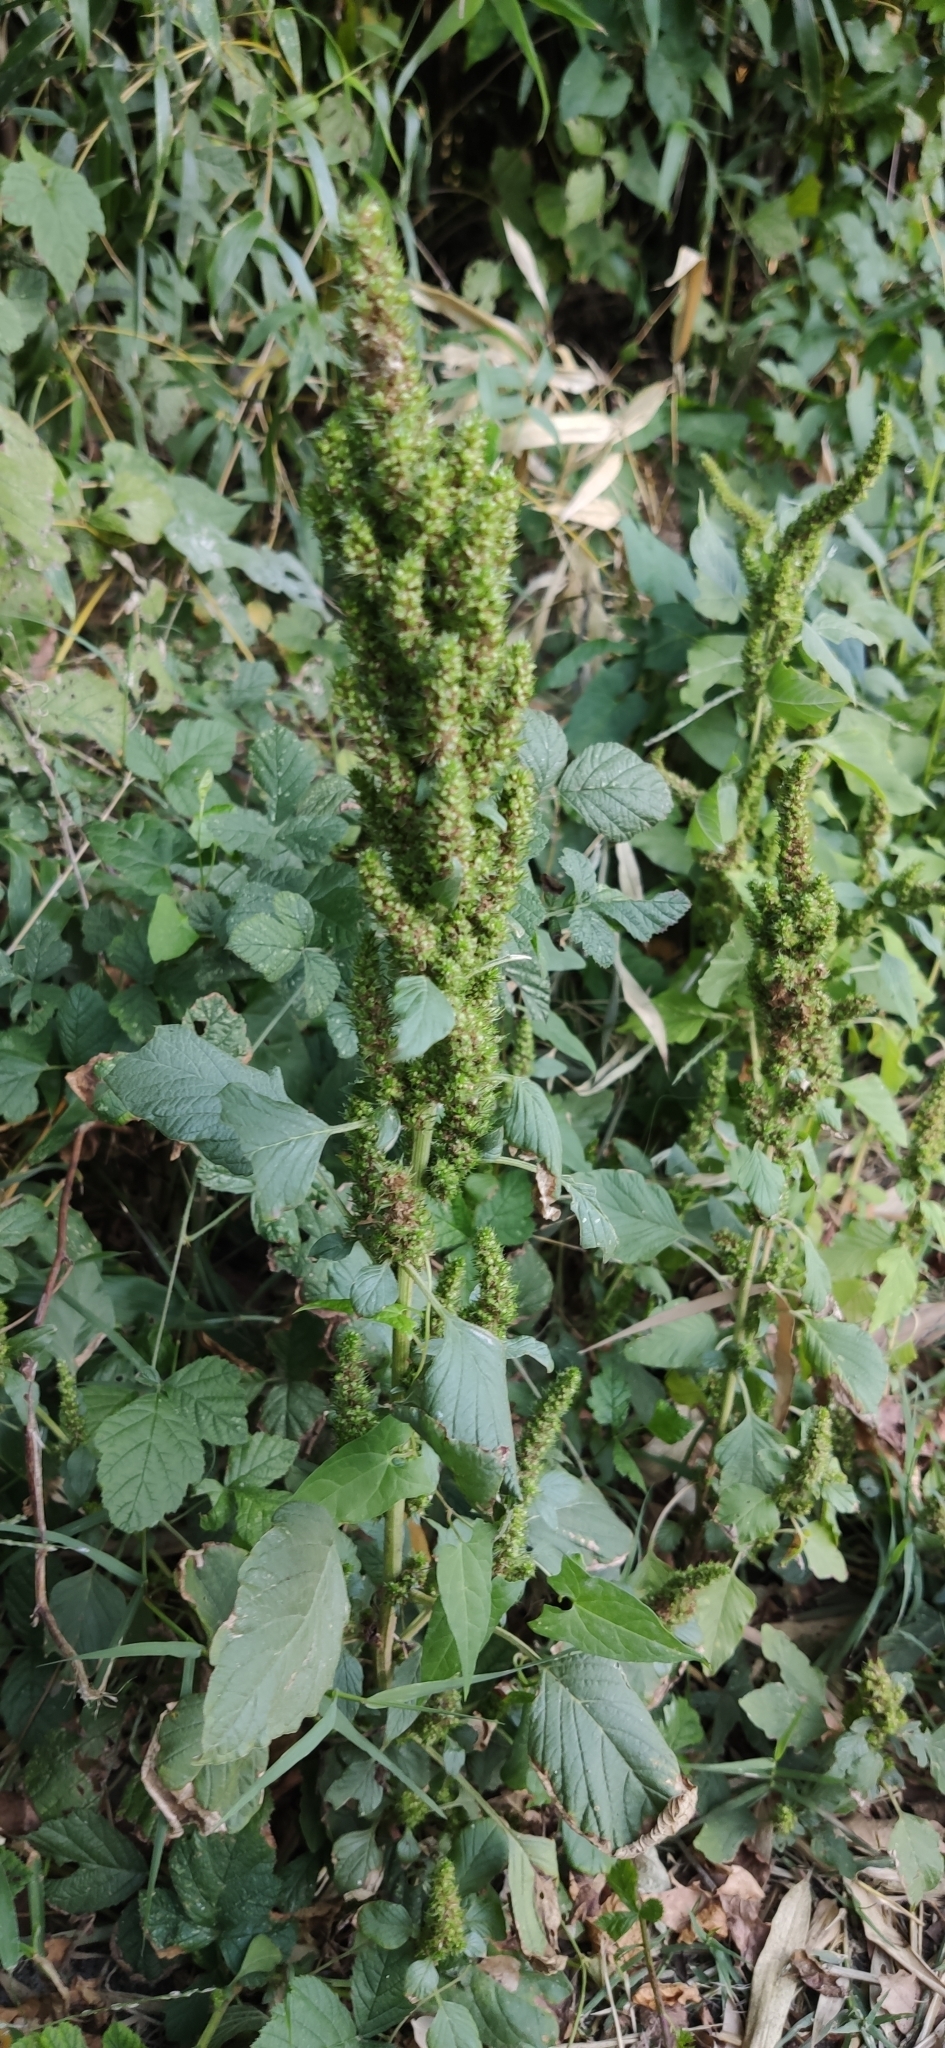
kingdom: Plantae
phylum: Tracheophyta
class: Magnoliopsida
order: Caryophyllales
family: Amaranthaceae
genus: Amaranthus
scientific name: Amaranthus retroflexus
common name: Redroot amaranth
